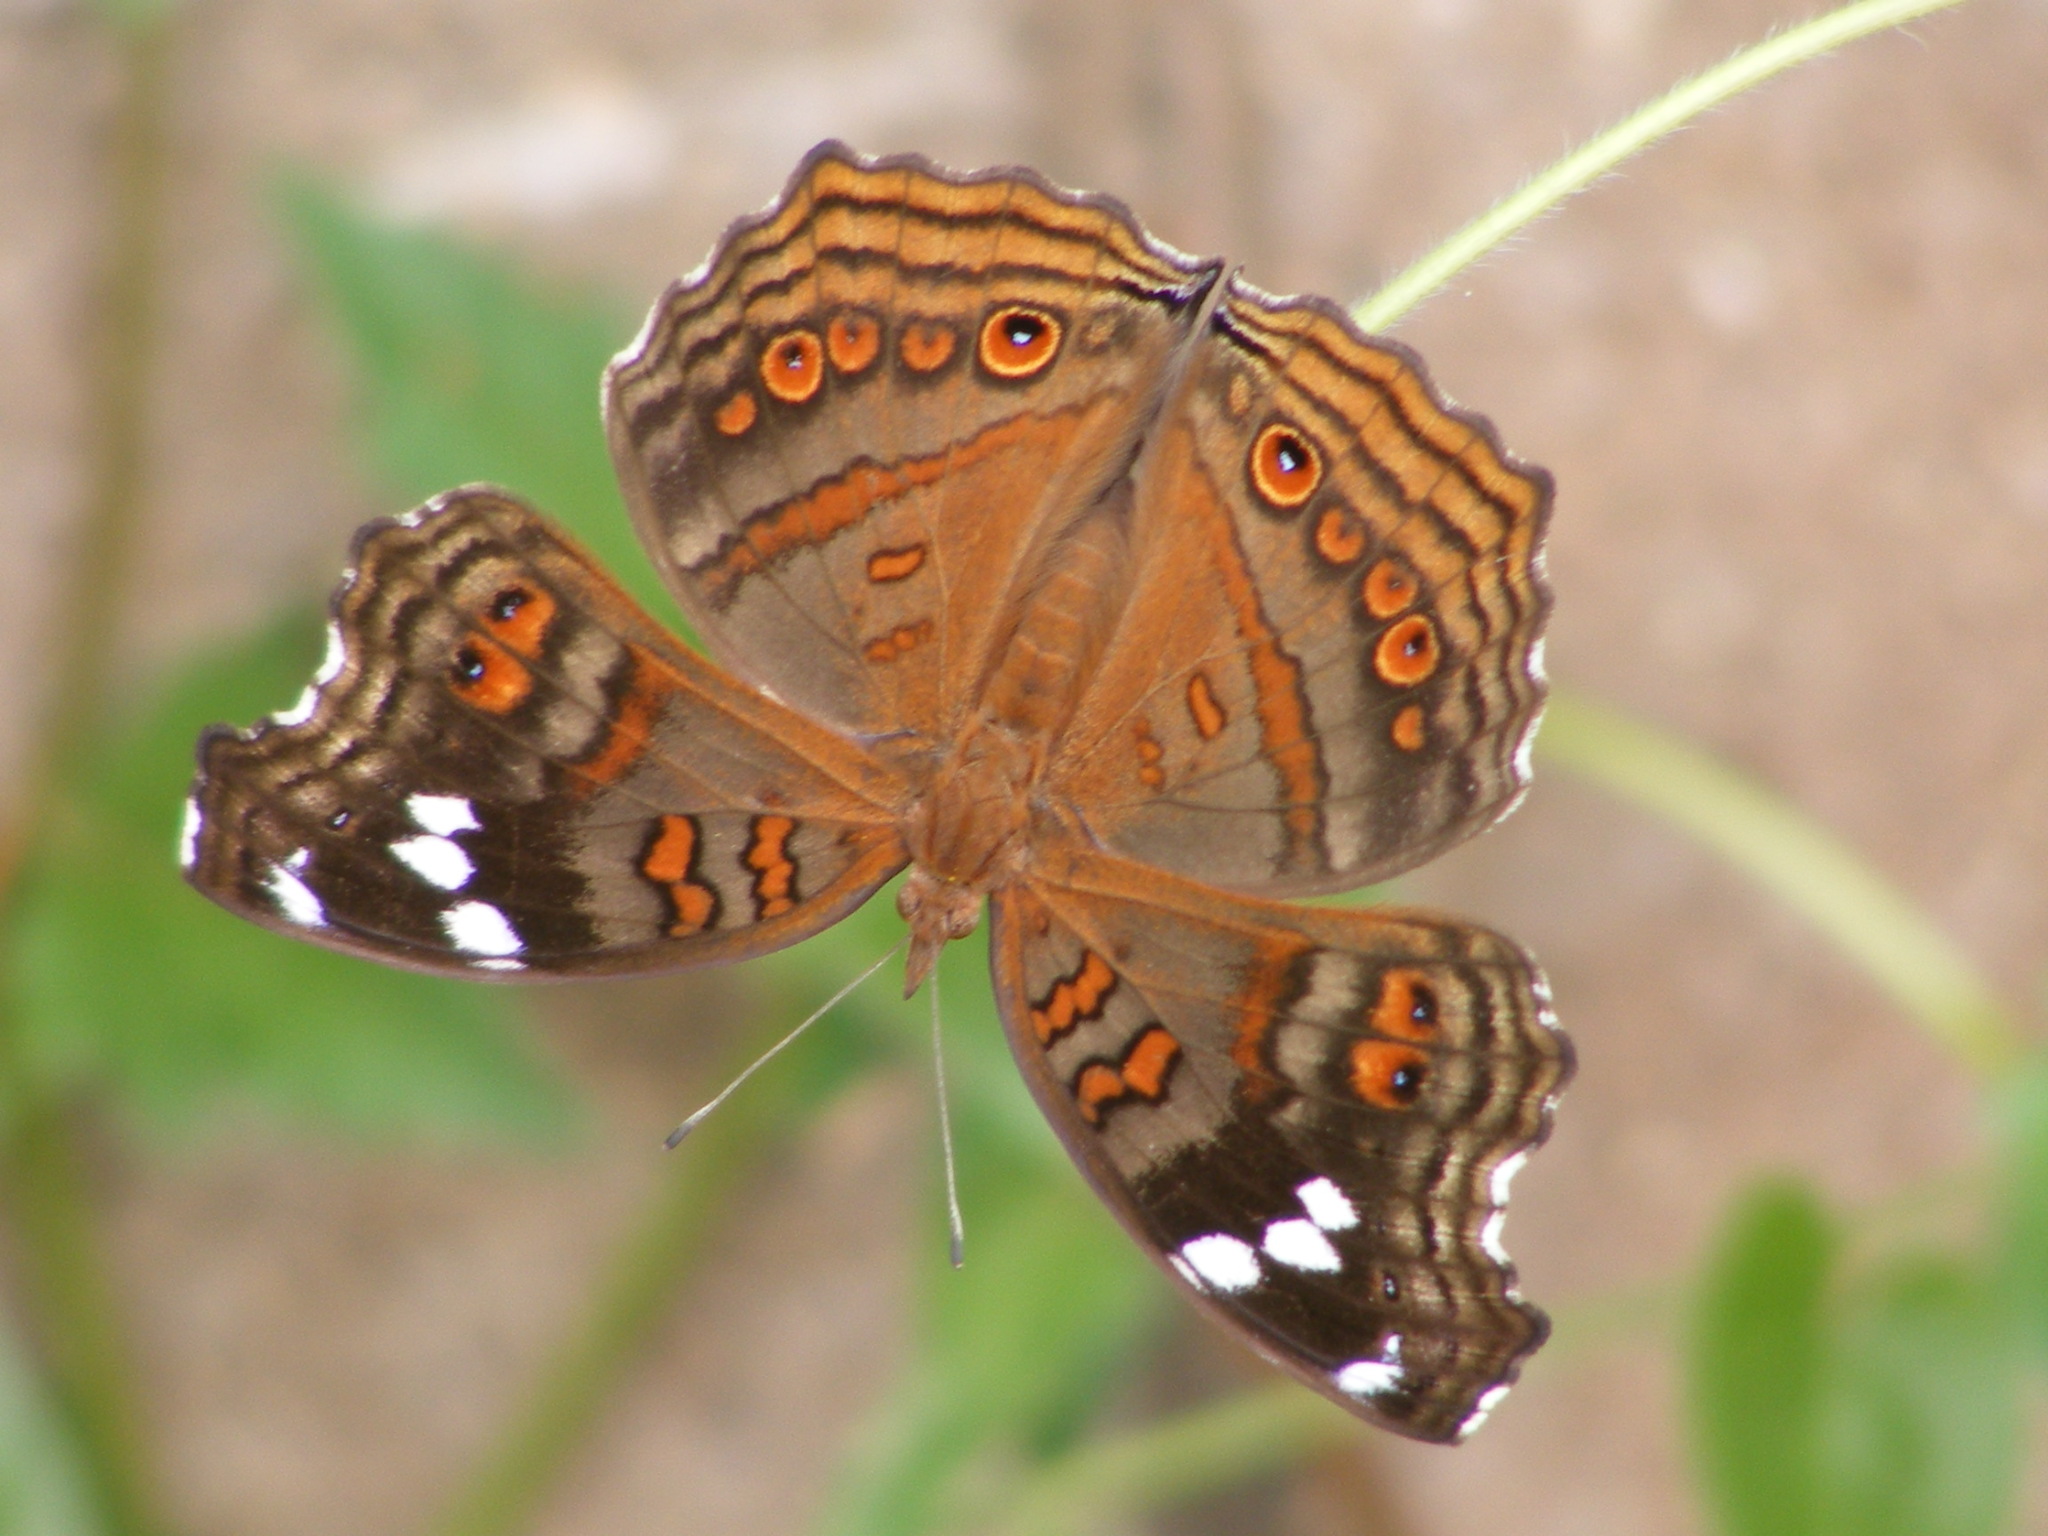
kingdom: Animalia
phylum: Arthropoda
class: Insecta
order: Lepidoptera
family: Nymphalidae
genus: Junonia
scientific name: Junonia natalica
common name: Brown pansy
